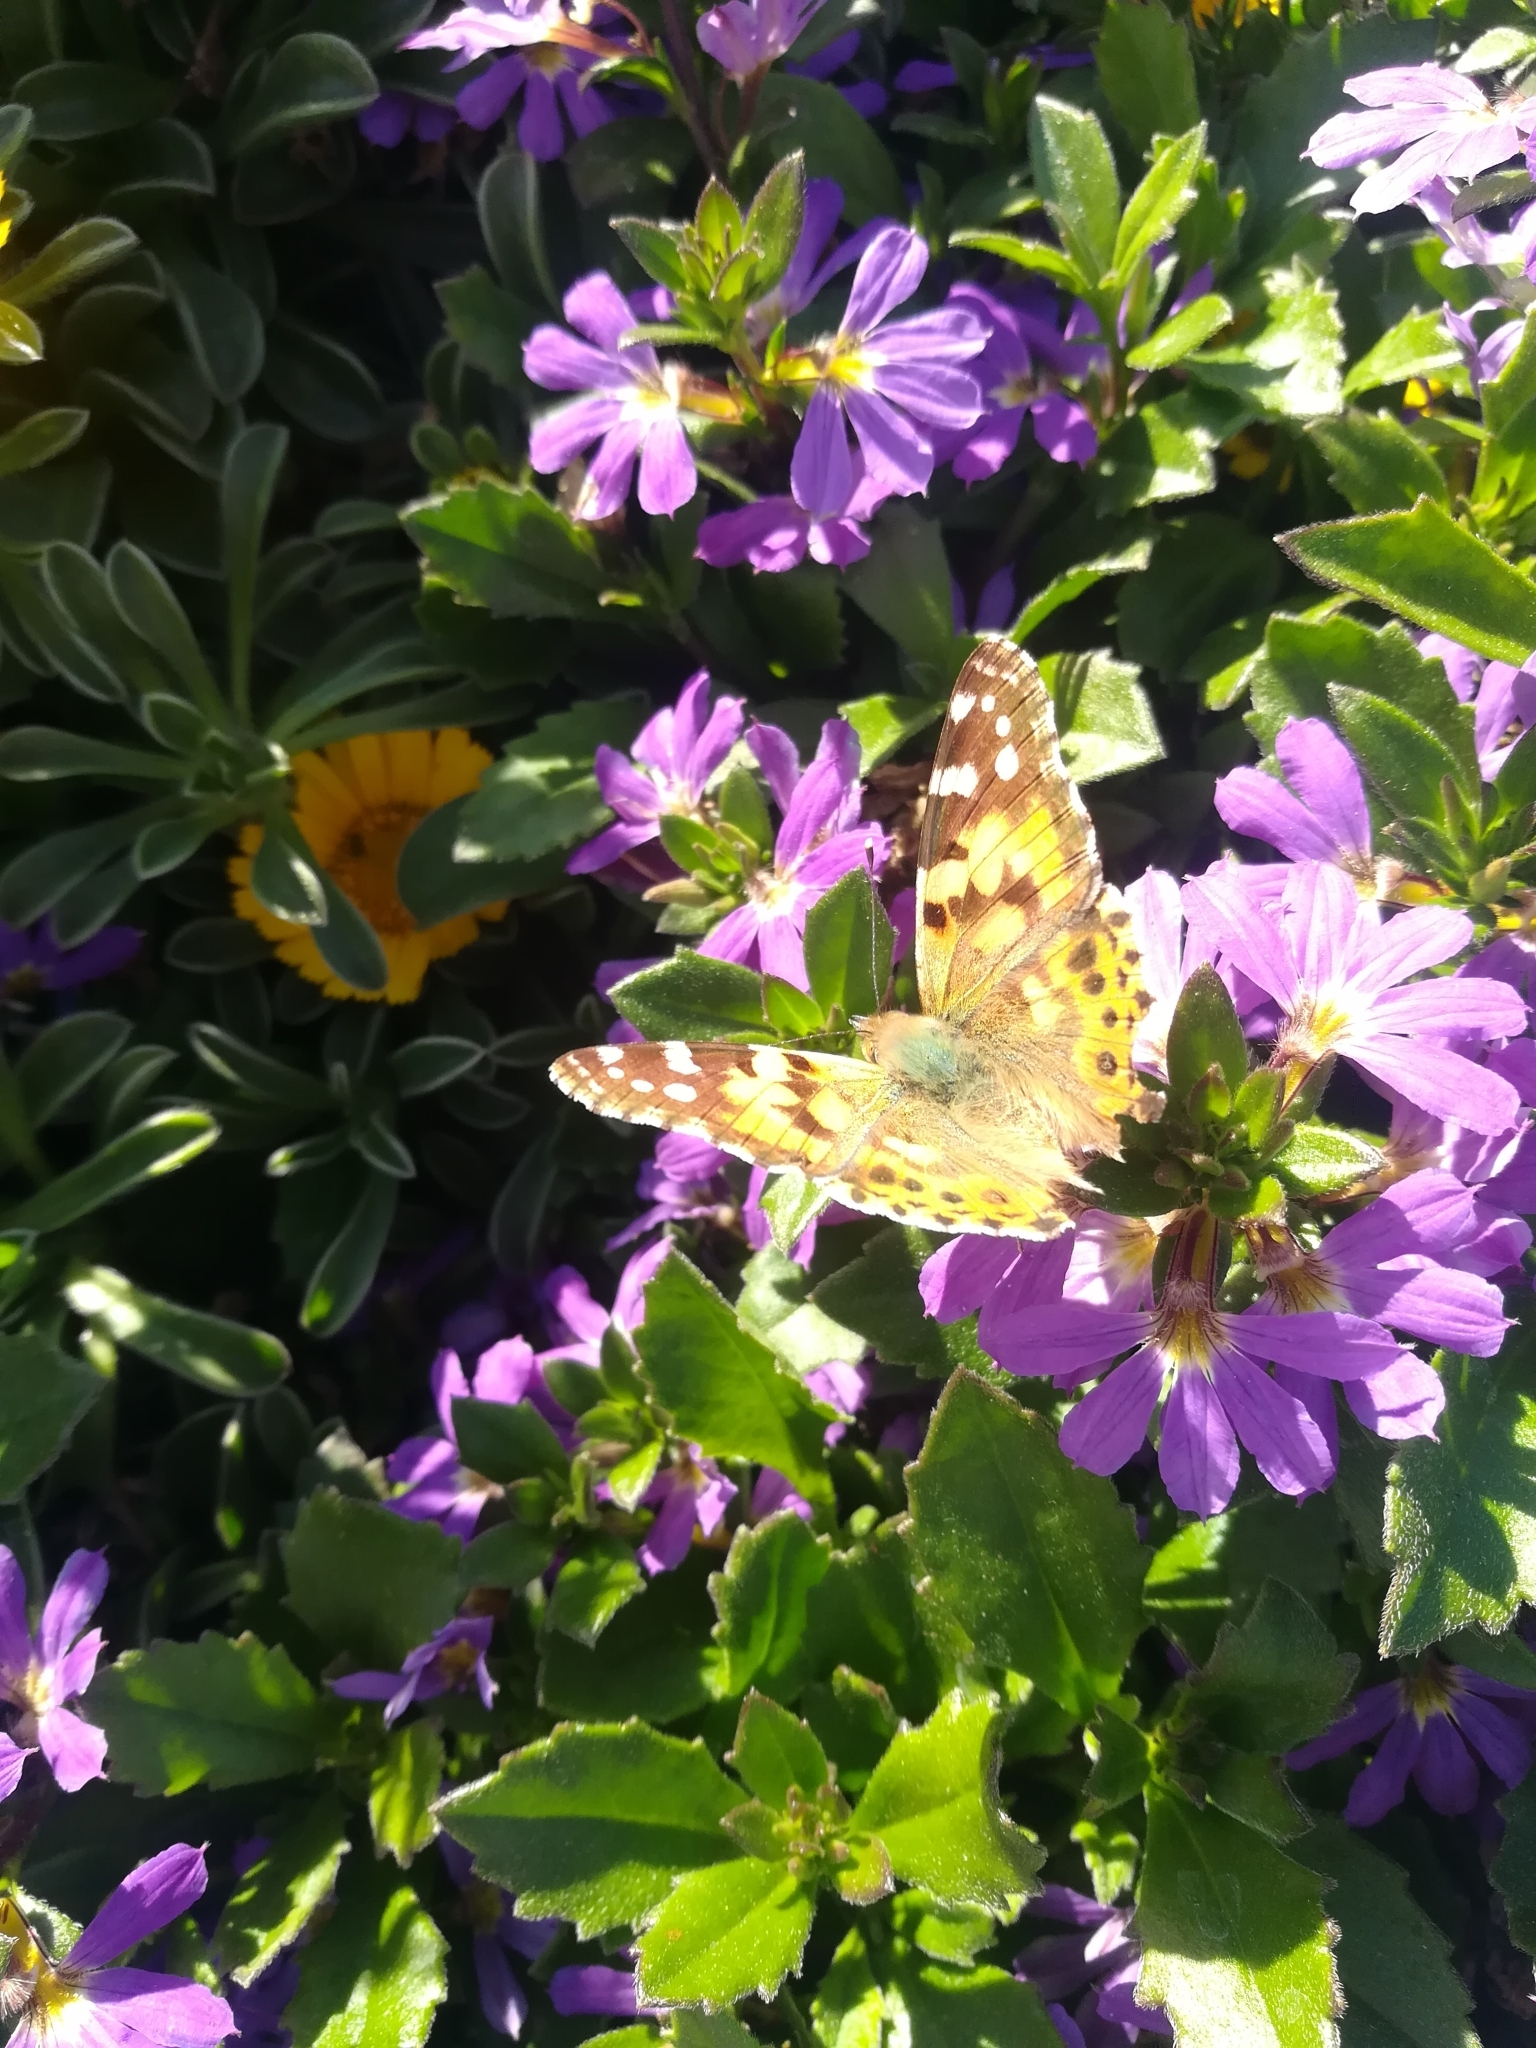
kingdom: Animalia
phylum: Arthropoda
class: Insecta
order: Lepidoptera
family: Nymphalidae
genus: Vanessa
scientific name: Vanessa cardui
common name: Painted lady
